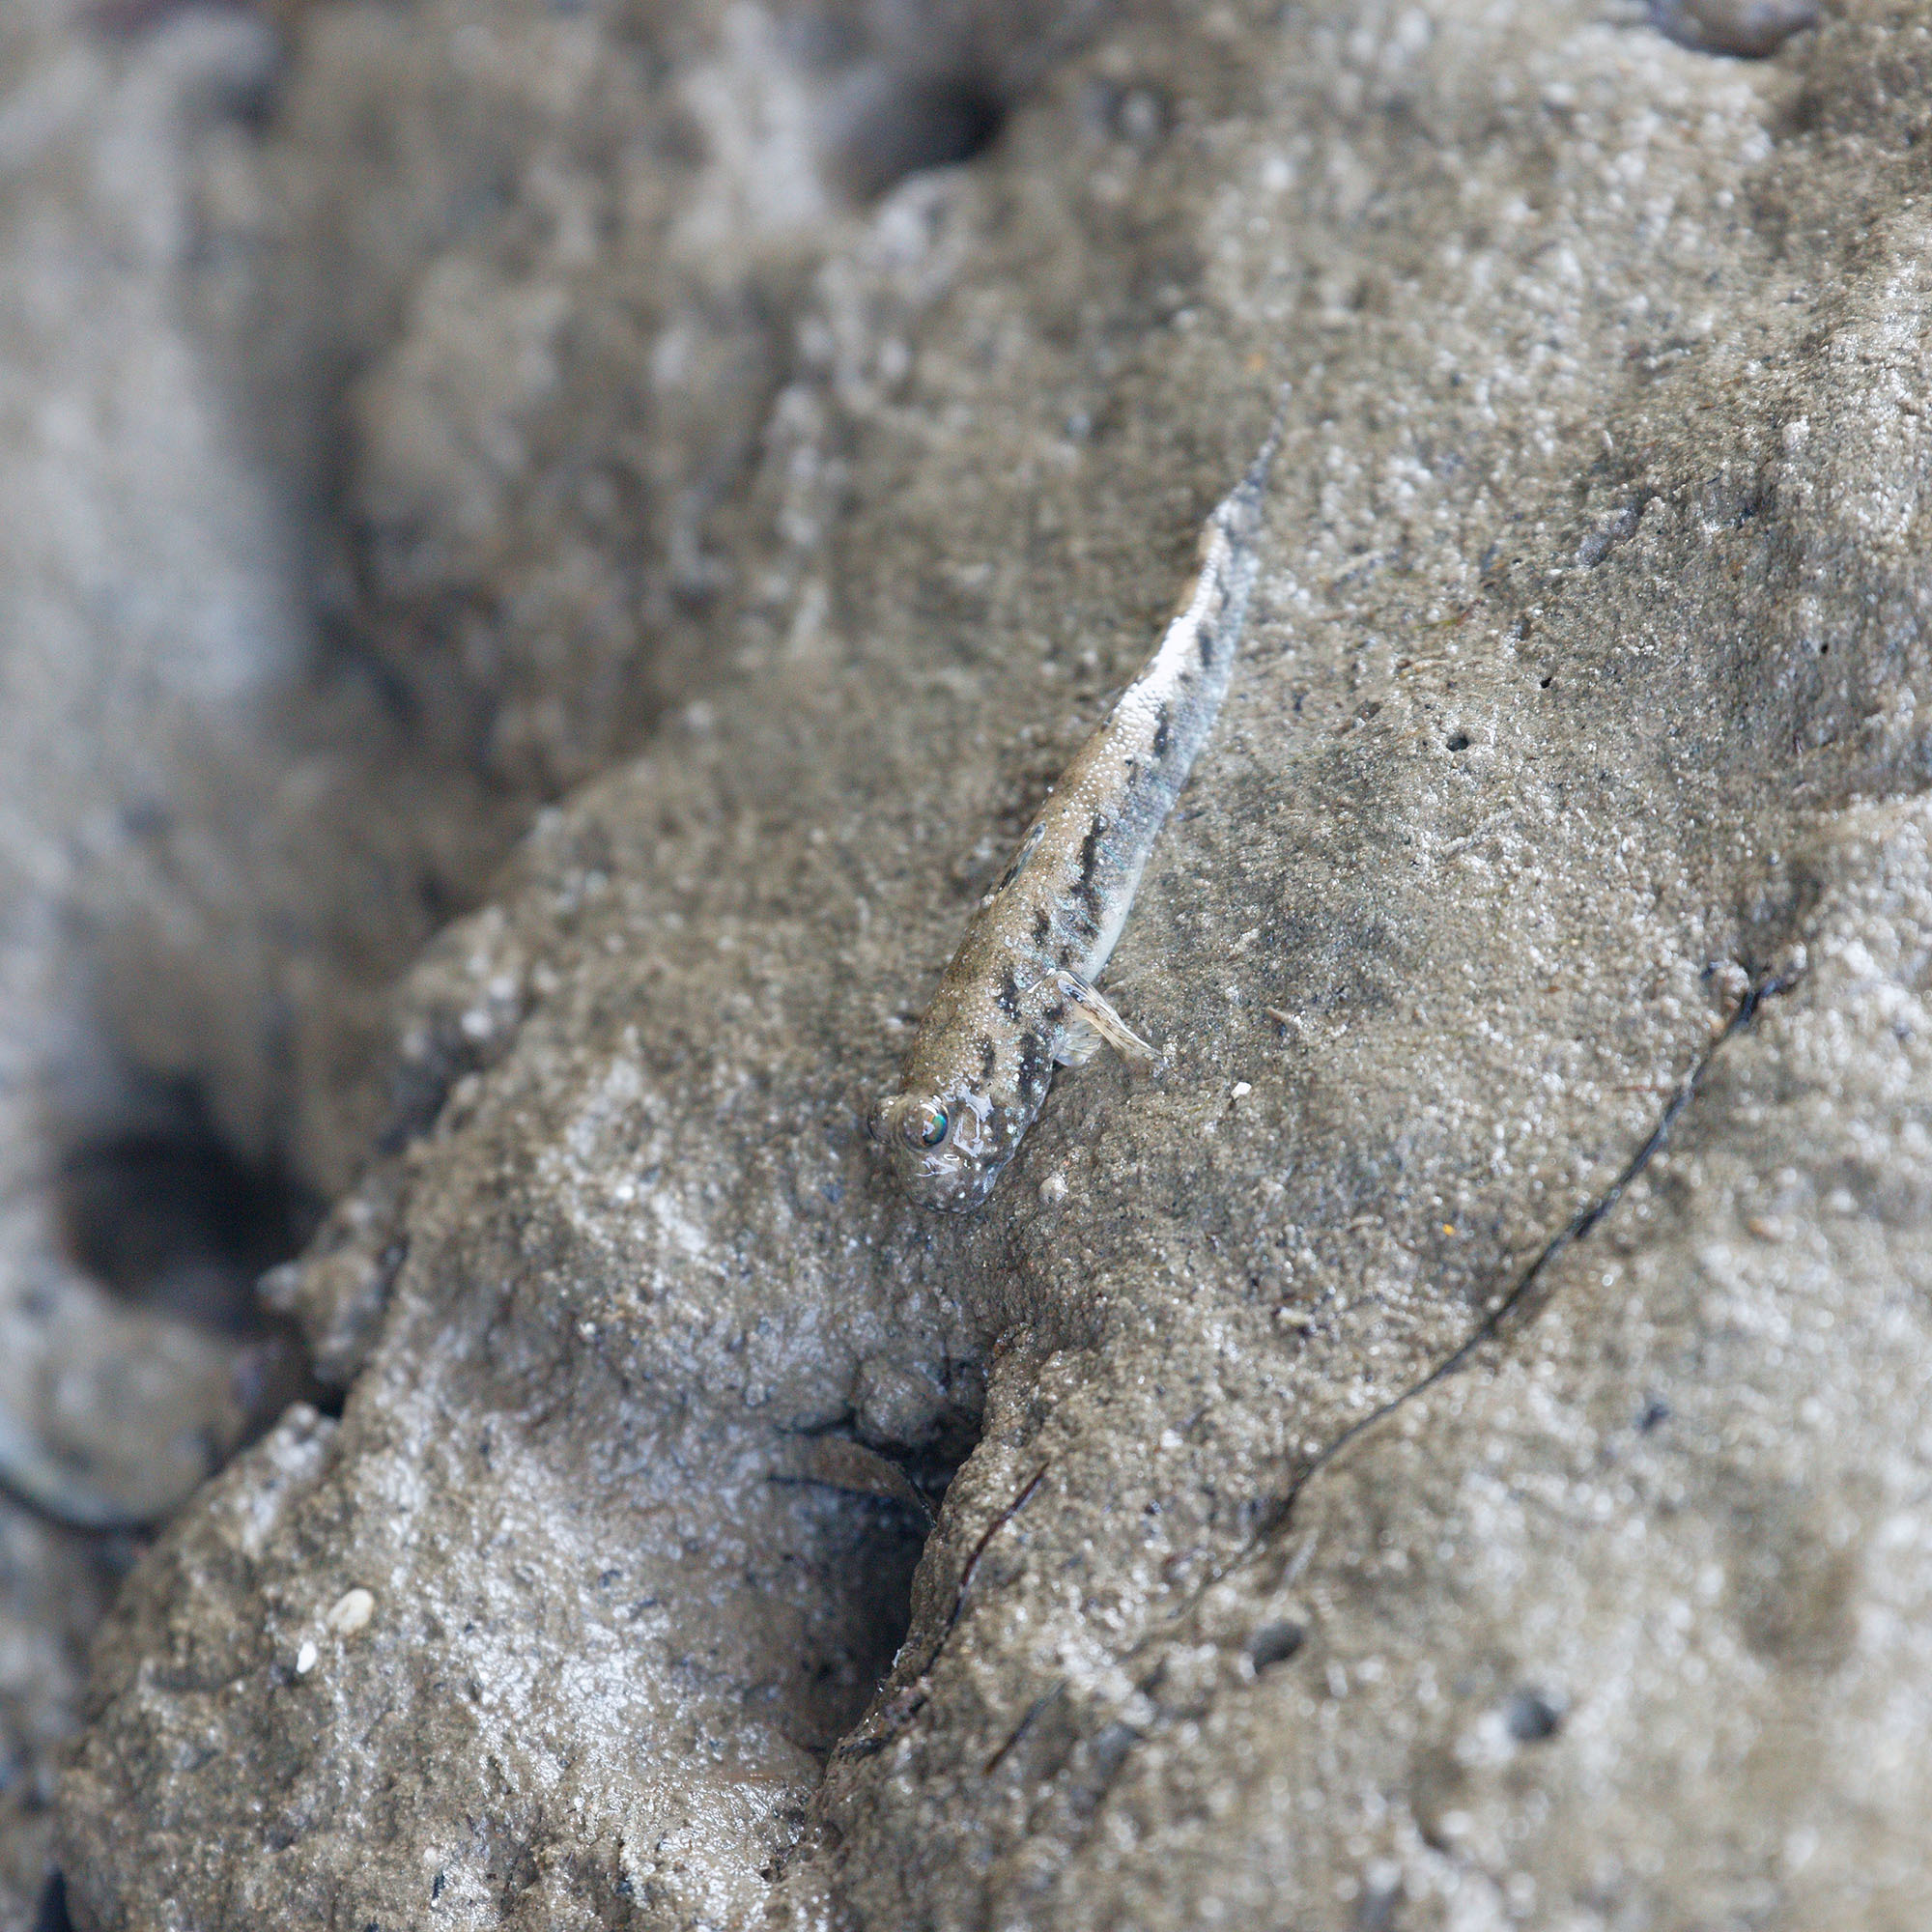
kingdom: Animalia
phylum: Chordata
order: Perciformes
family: Gobiidae
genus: Periophthalmus
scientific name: Periophthalmus gracilis
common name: Graceful mudskipper
